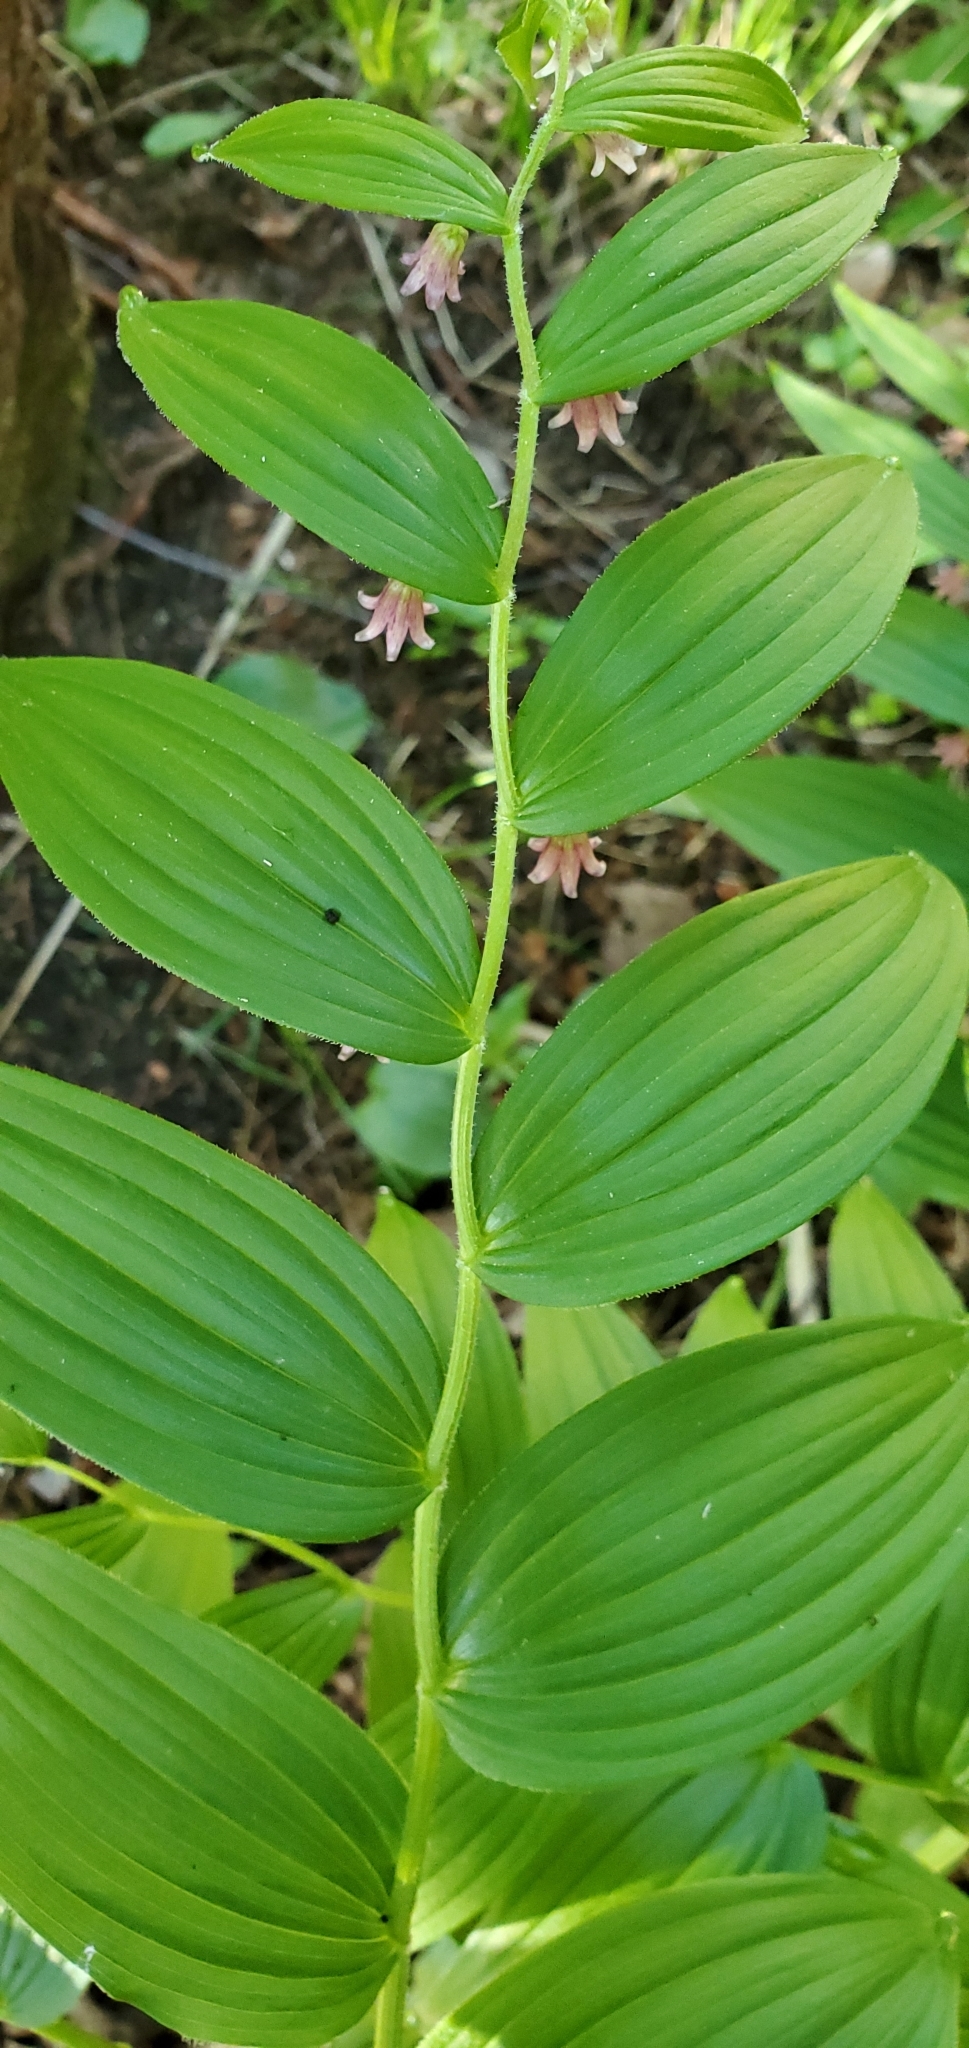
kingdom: Plantae
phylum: Tracheophyta
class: Liliopsida
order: Liliales
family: Liliaceae
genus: Streptopus
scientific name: Streptopus lanceolatus
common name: Rose mandarin
